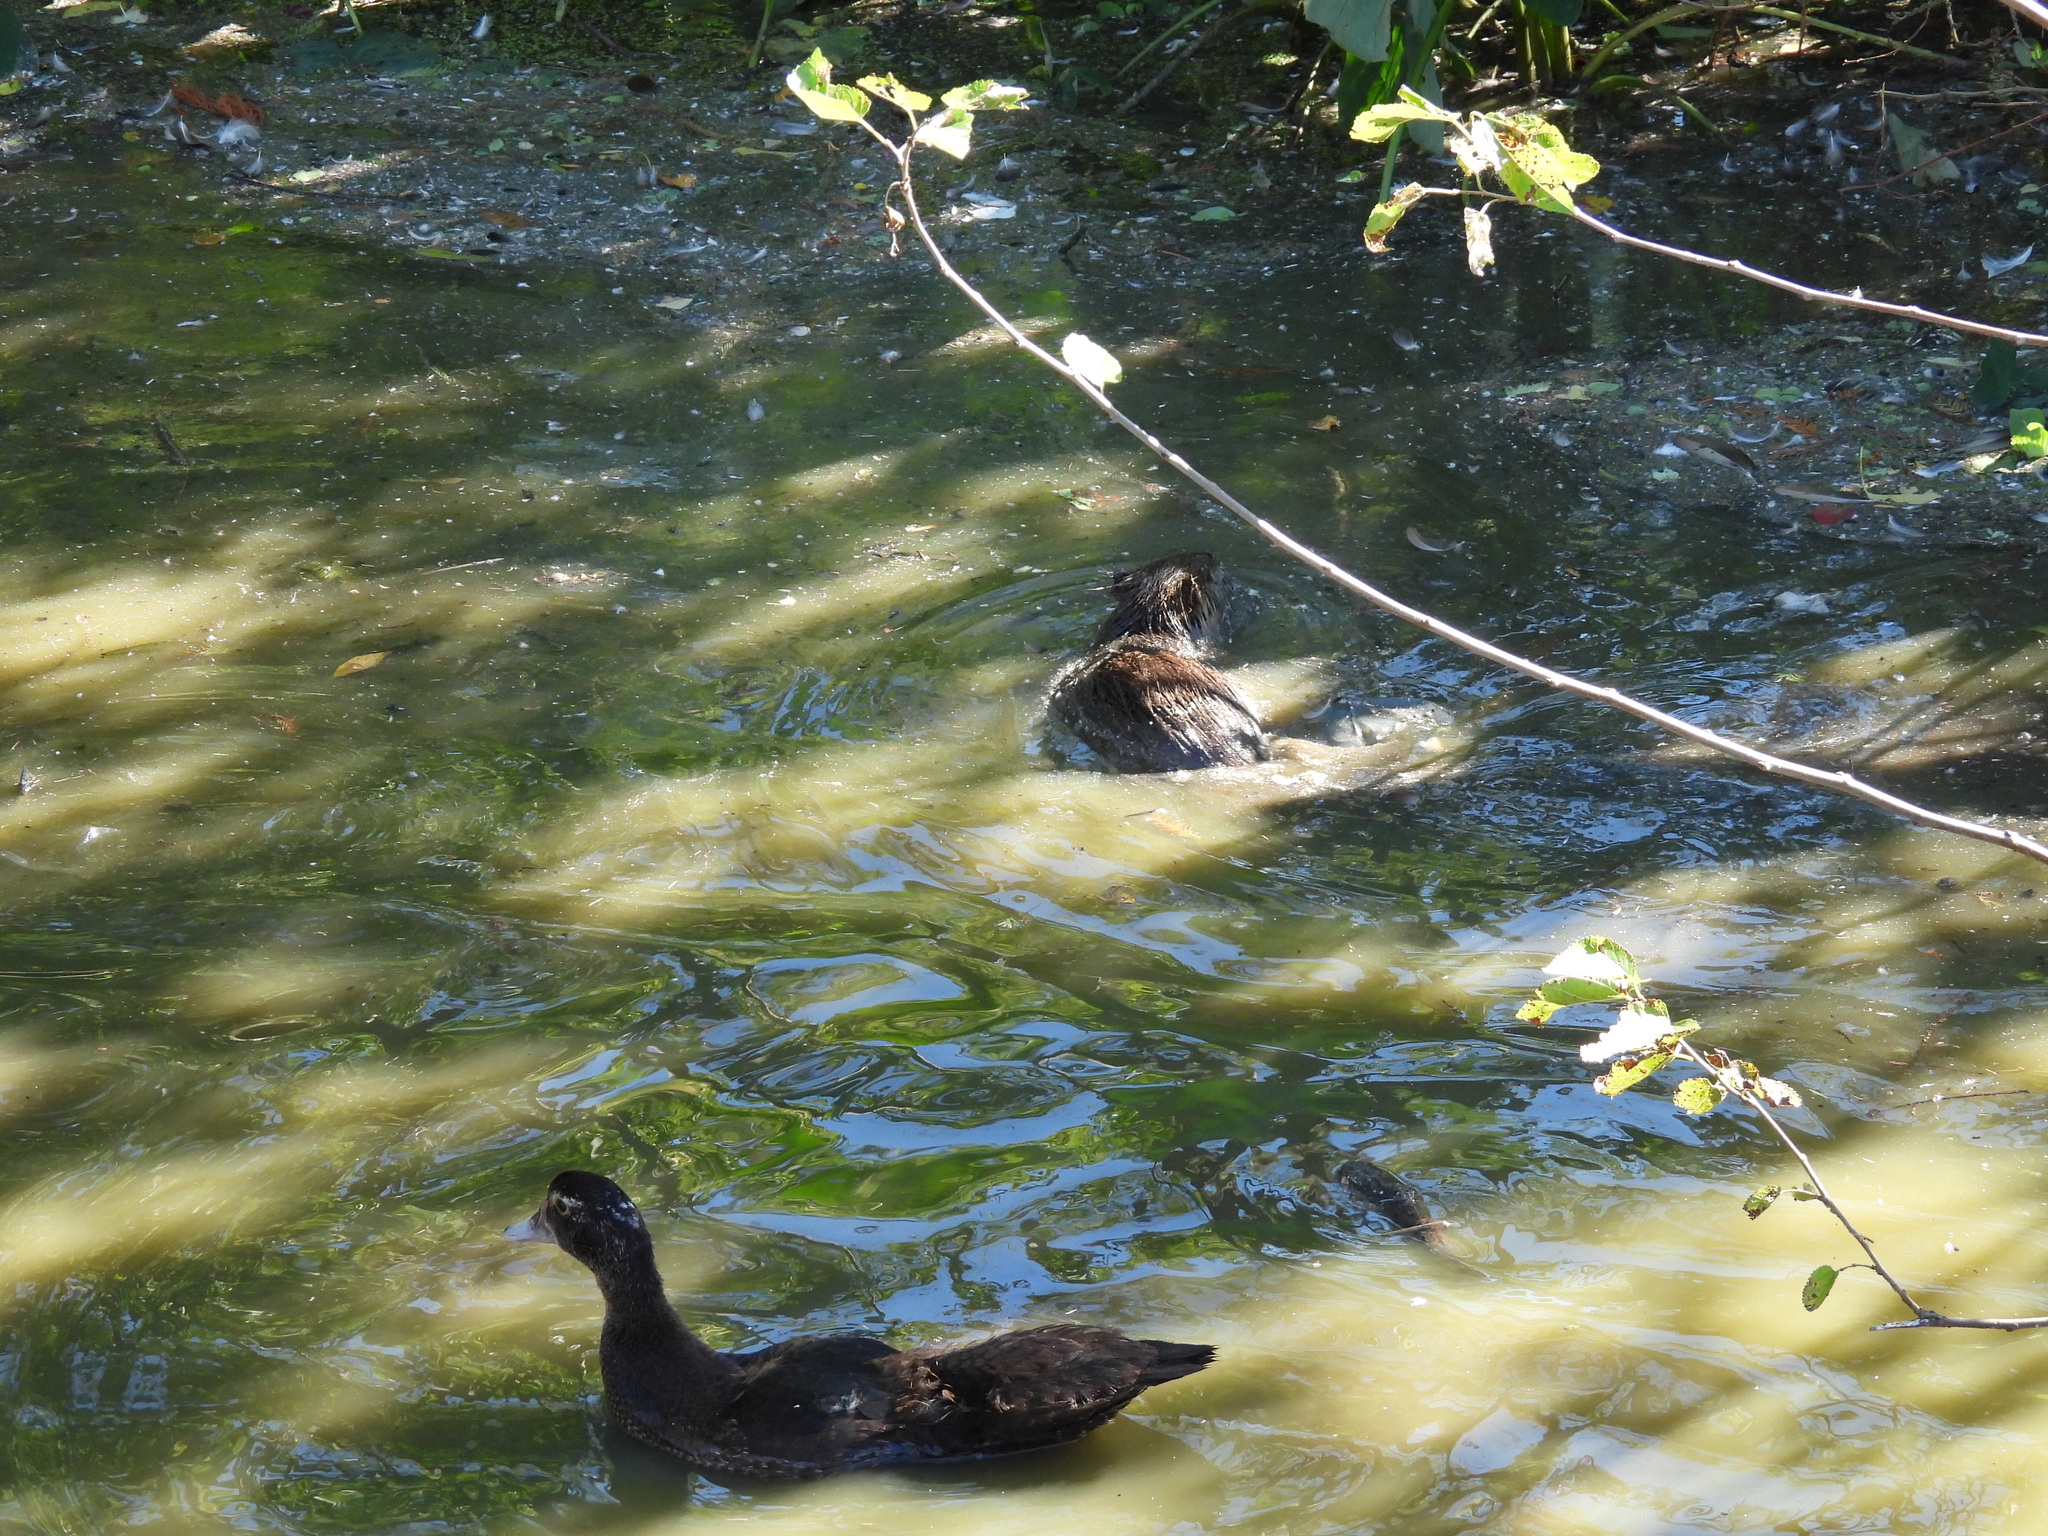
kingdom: Animalia
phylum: Chordata
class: Mammalia
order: Rodentia
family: Myocastoridae
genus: Myocastor
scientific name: Myocastor coypus
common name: Coypu
